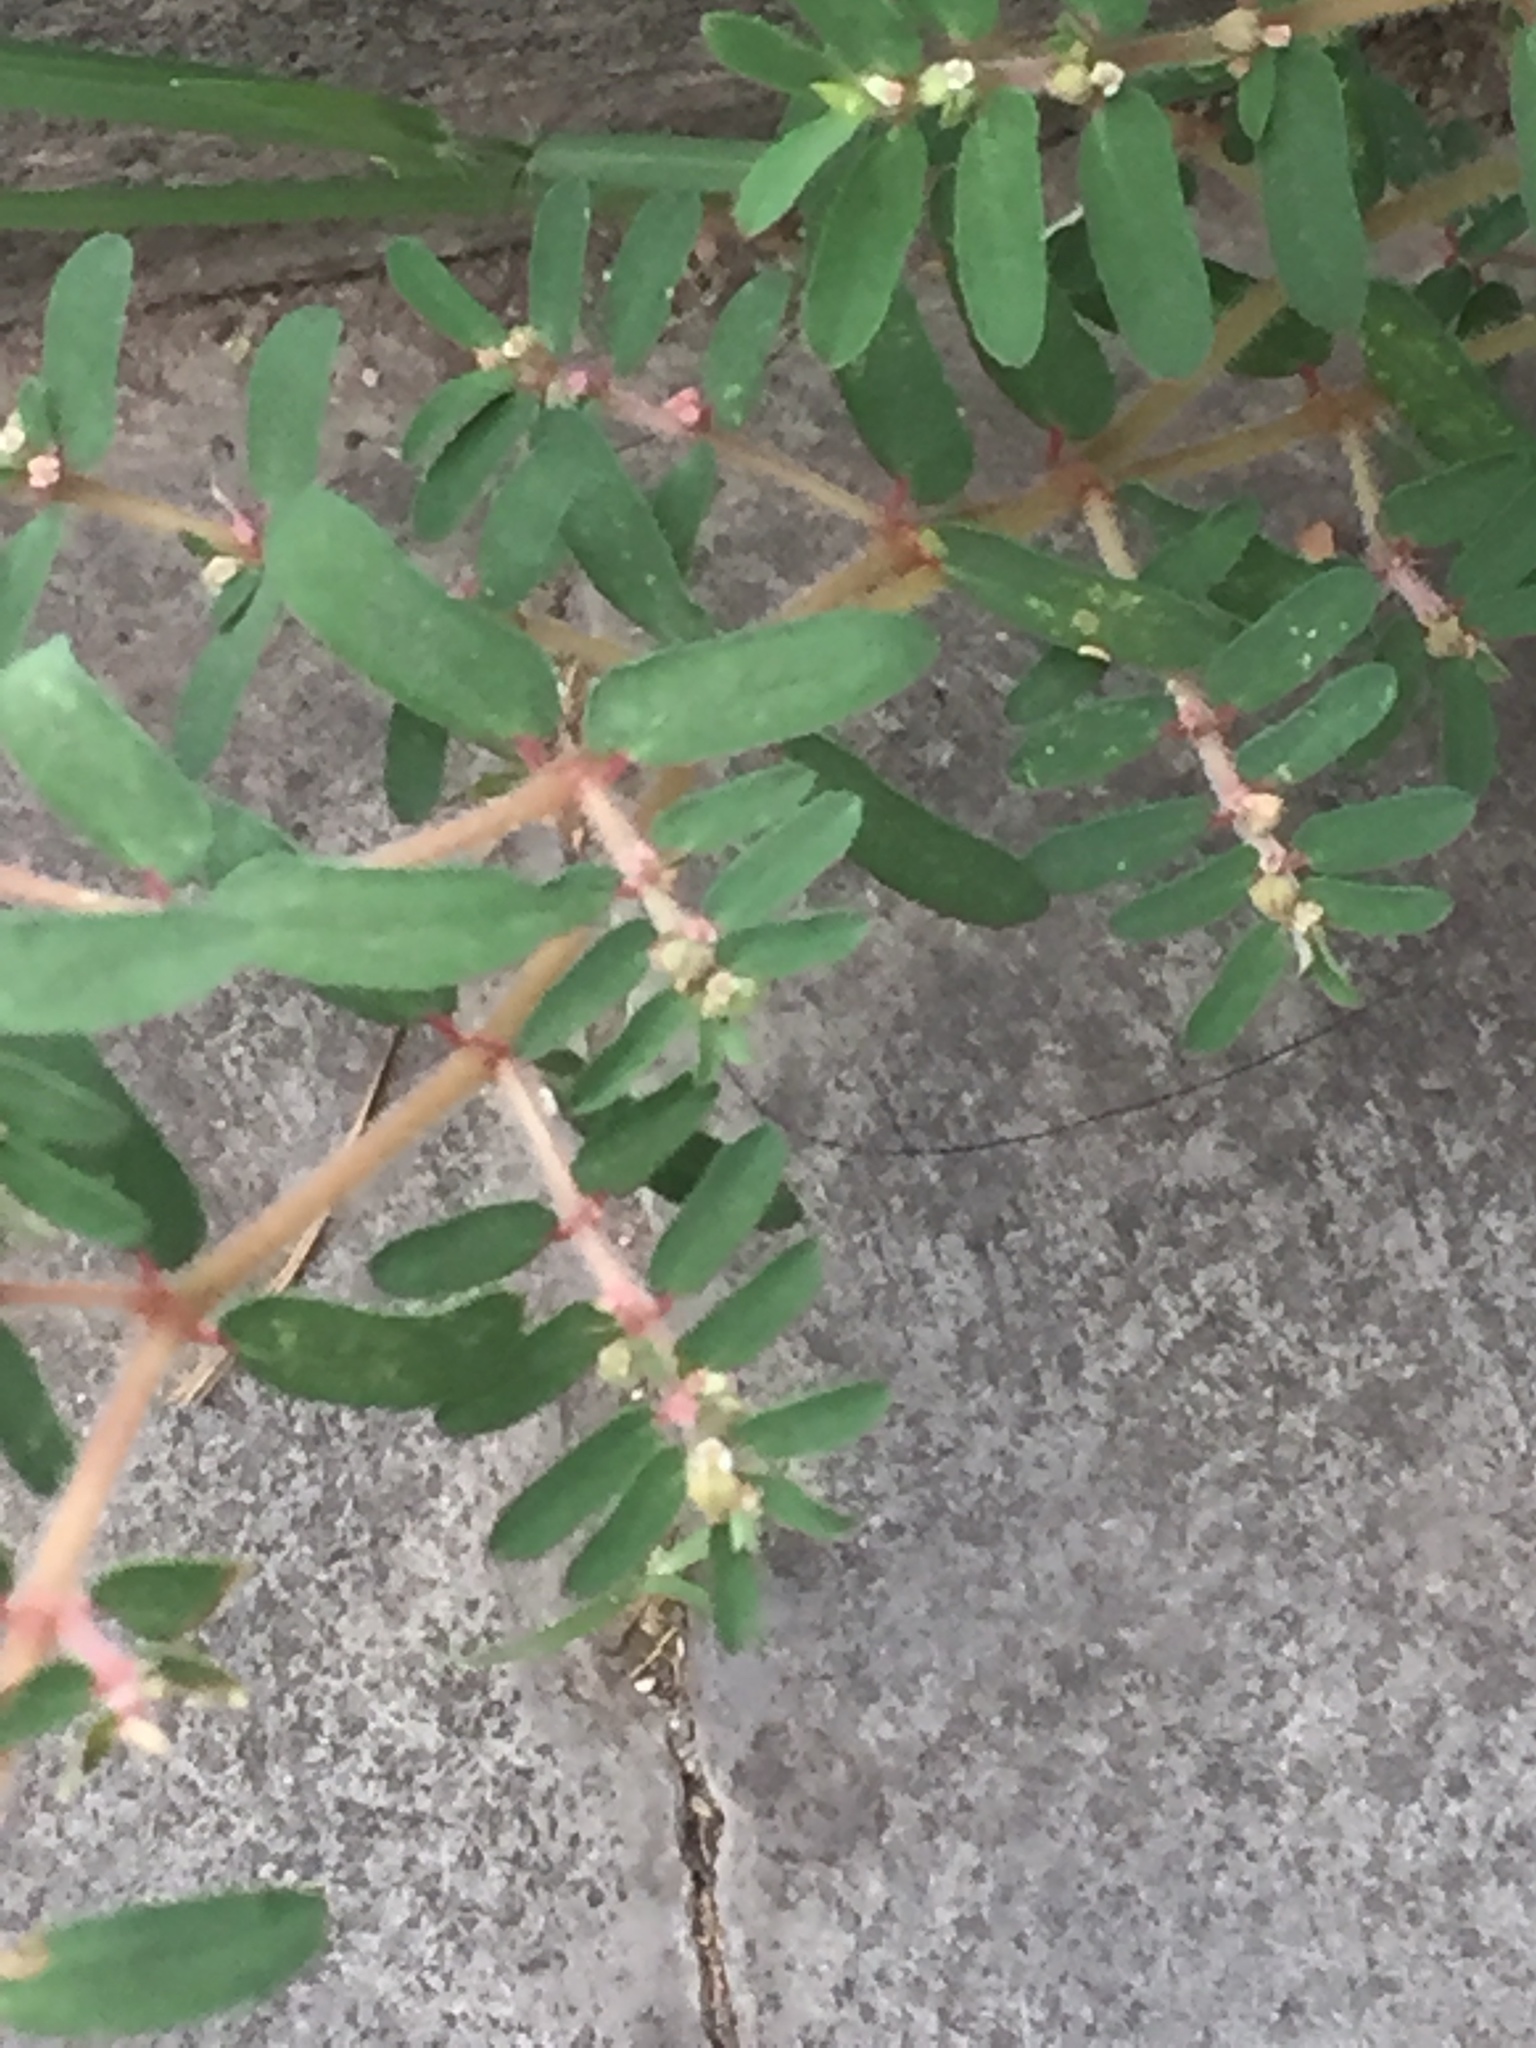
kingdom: Plantae
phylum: Tracheophyta
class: Magnoliopsida
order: Malpighiales
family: Euphorbiaceae
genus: Euphorbia
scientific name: Euphorbia maculata
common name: Spotted spurge
